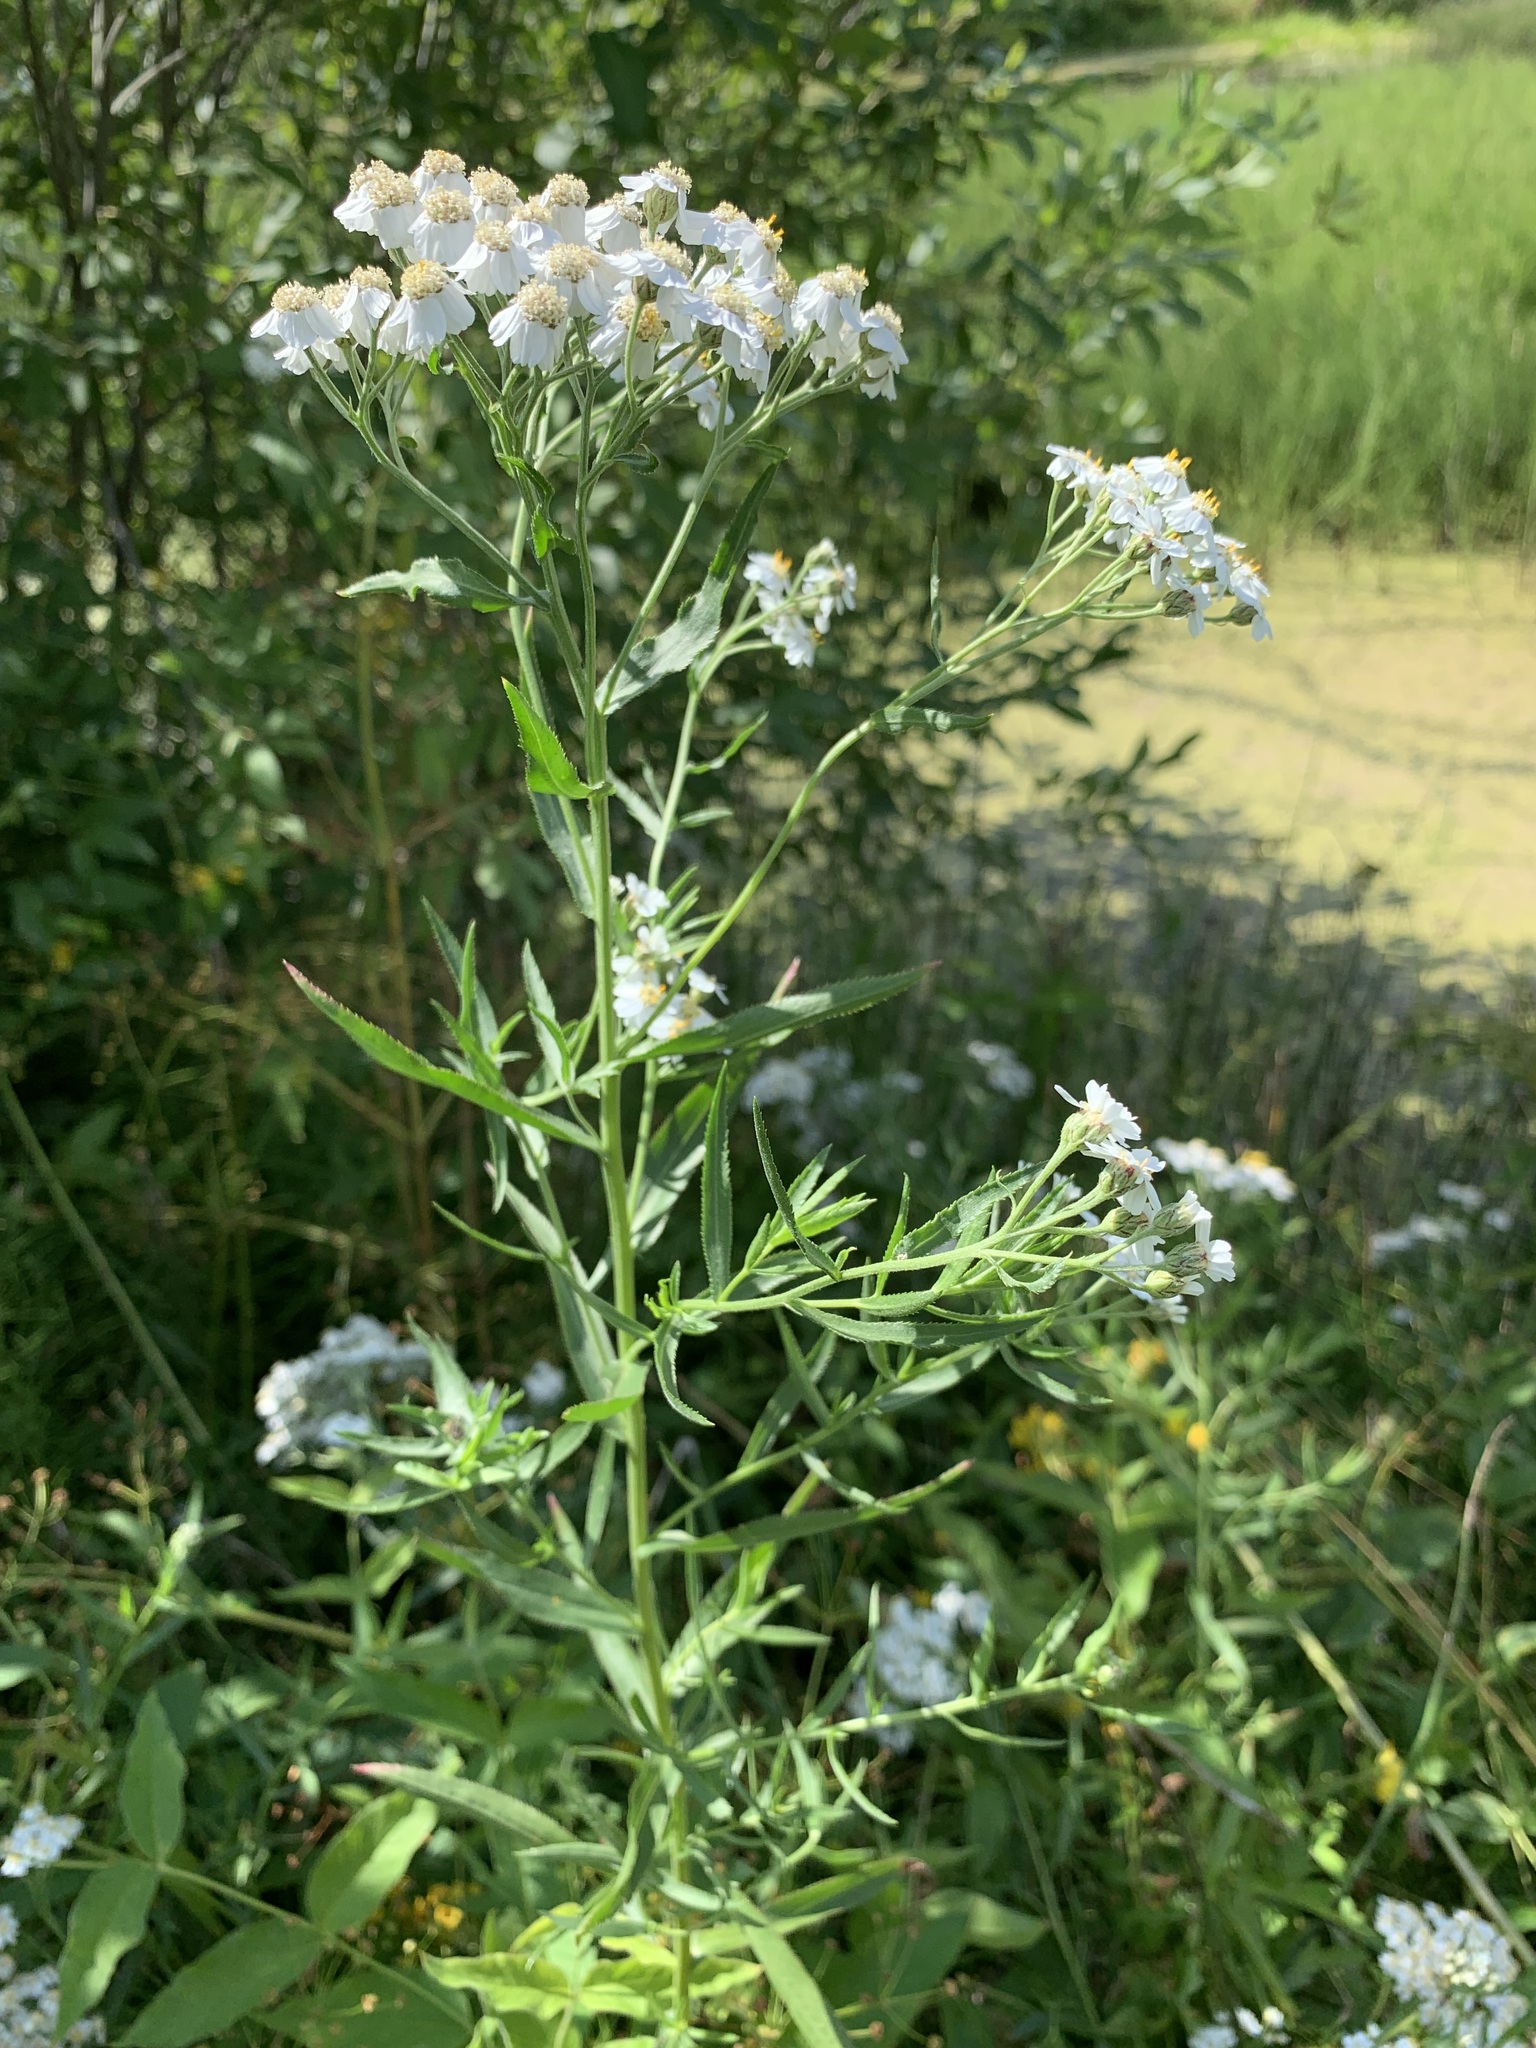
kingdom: Plantae
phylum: Tracheophyta
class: Magnoliopsida
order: Asterales
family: Asteraceae
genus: Achillea
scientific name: Achillea salicifolia
